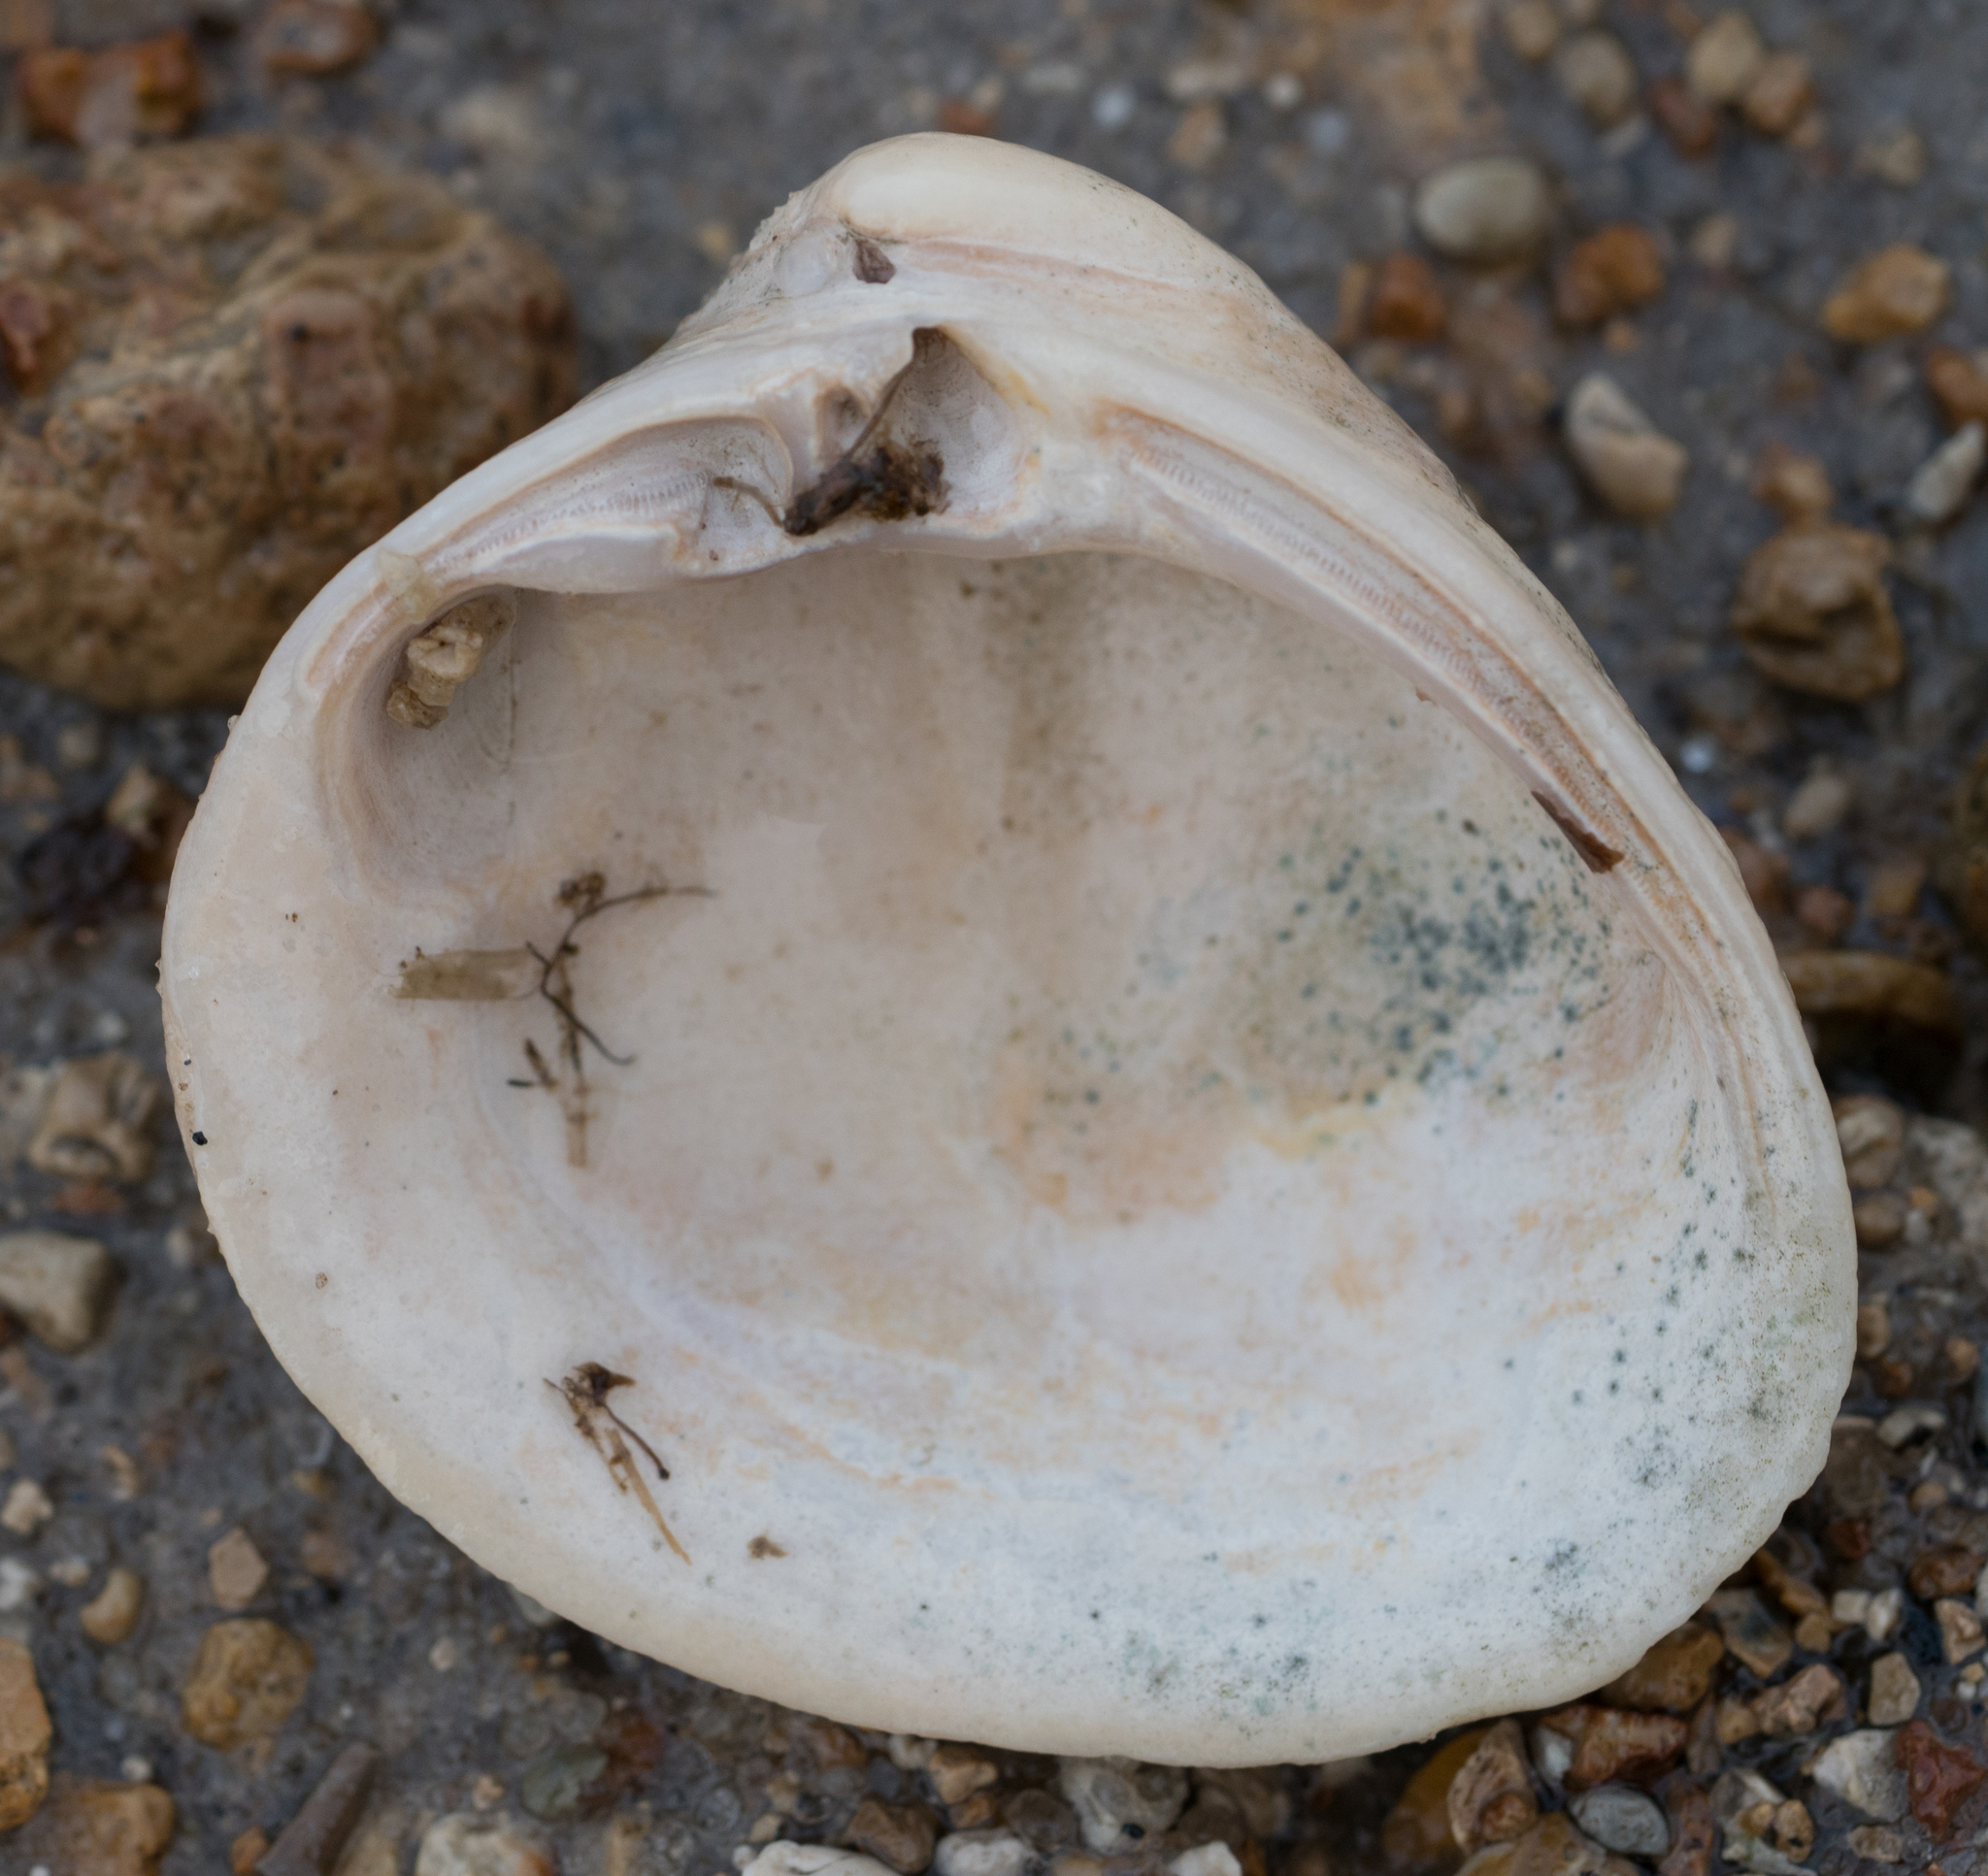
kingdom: Animalia
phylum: Mollusca
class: Bivalvia
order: Venerida
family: Mactridae
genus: Rangia
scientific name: Rangia cuneata
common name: Atlantic rangia
